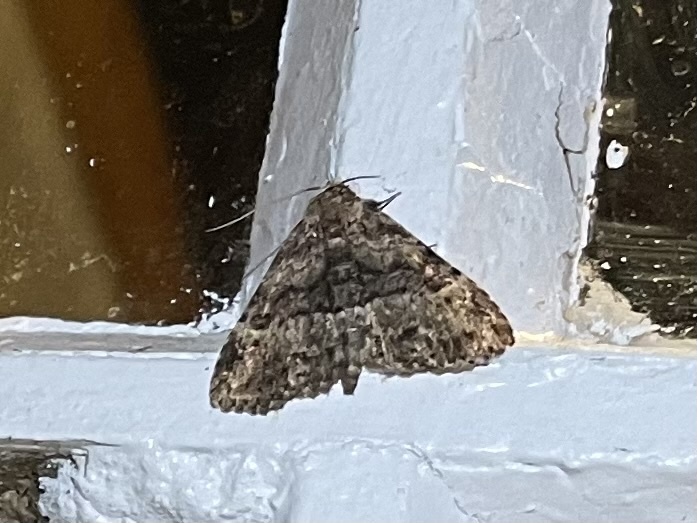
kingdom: Animalia
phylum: Arthropoda
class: Insecta
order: Lepidoptera
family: Erebidae
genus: Metalectra
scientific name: Metalectra discalis
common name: Common fungus moth
